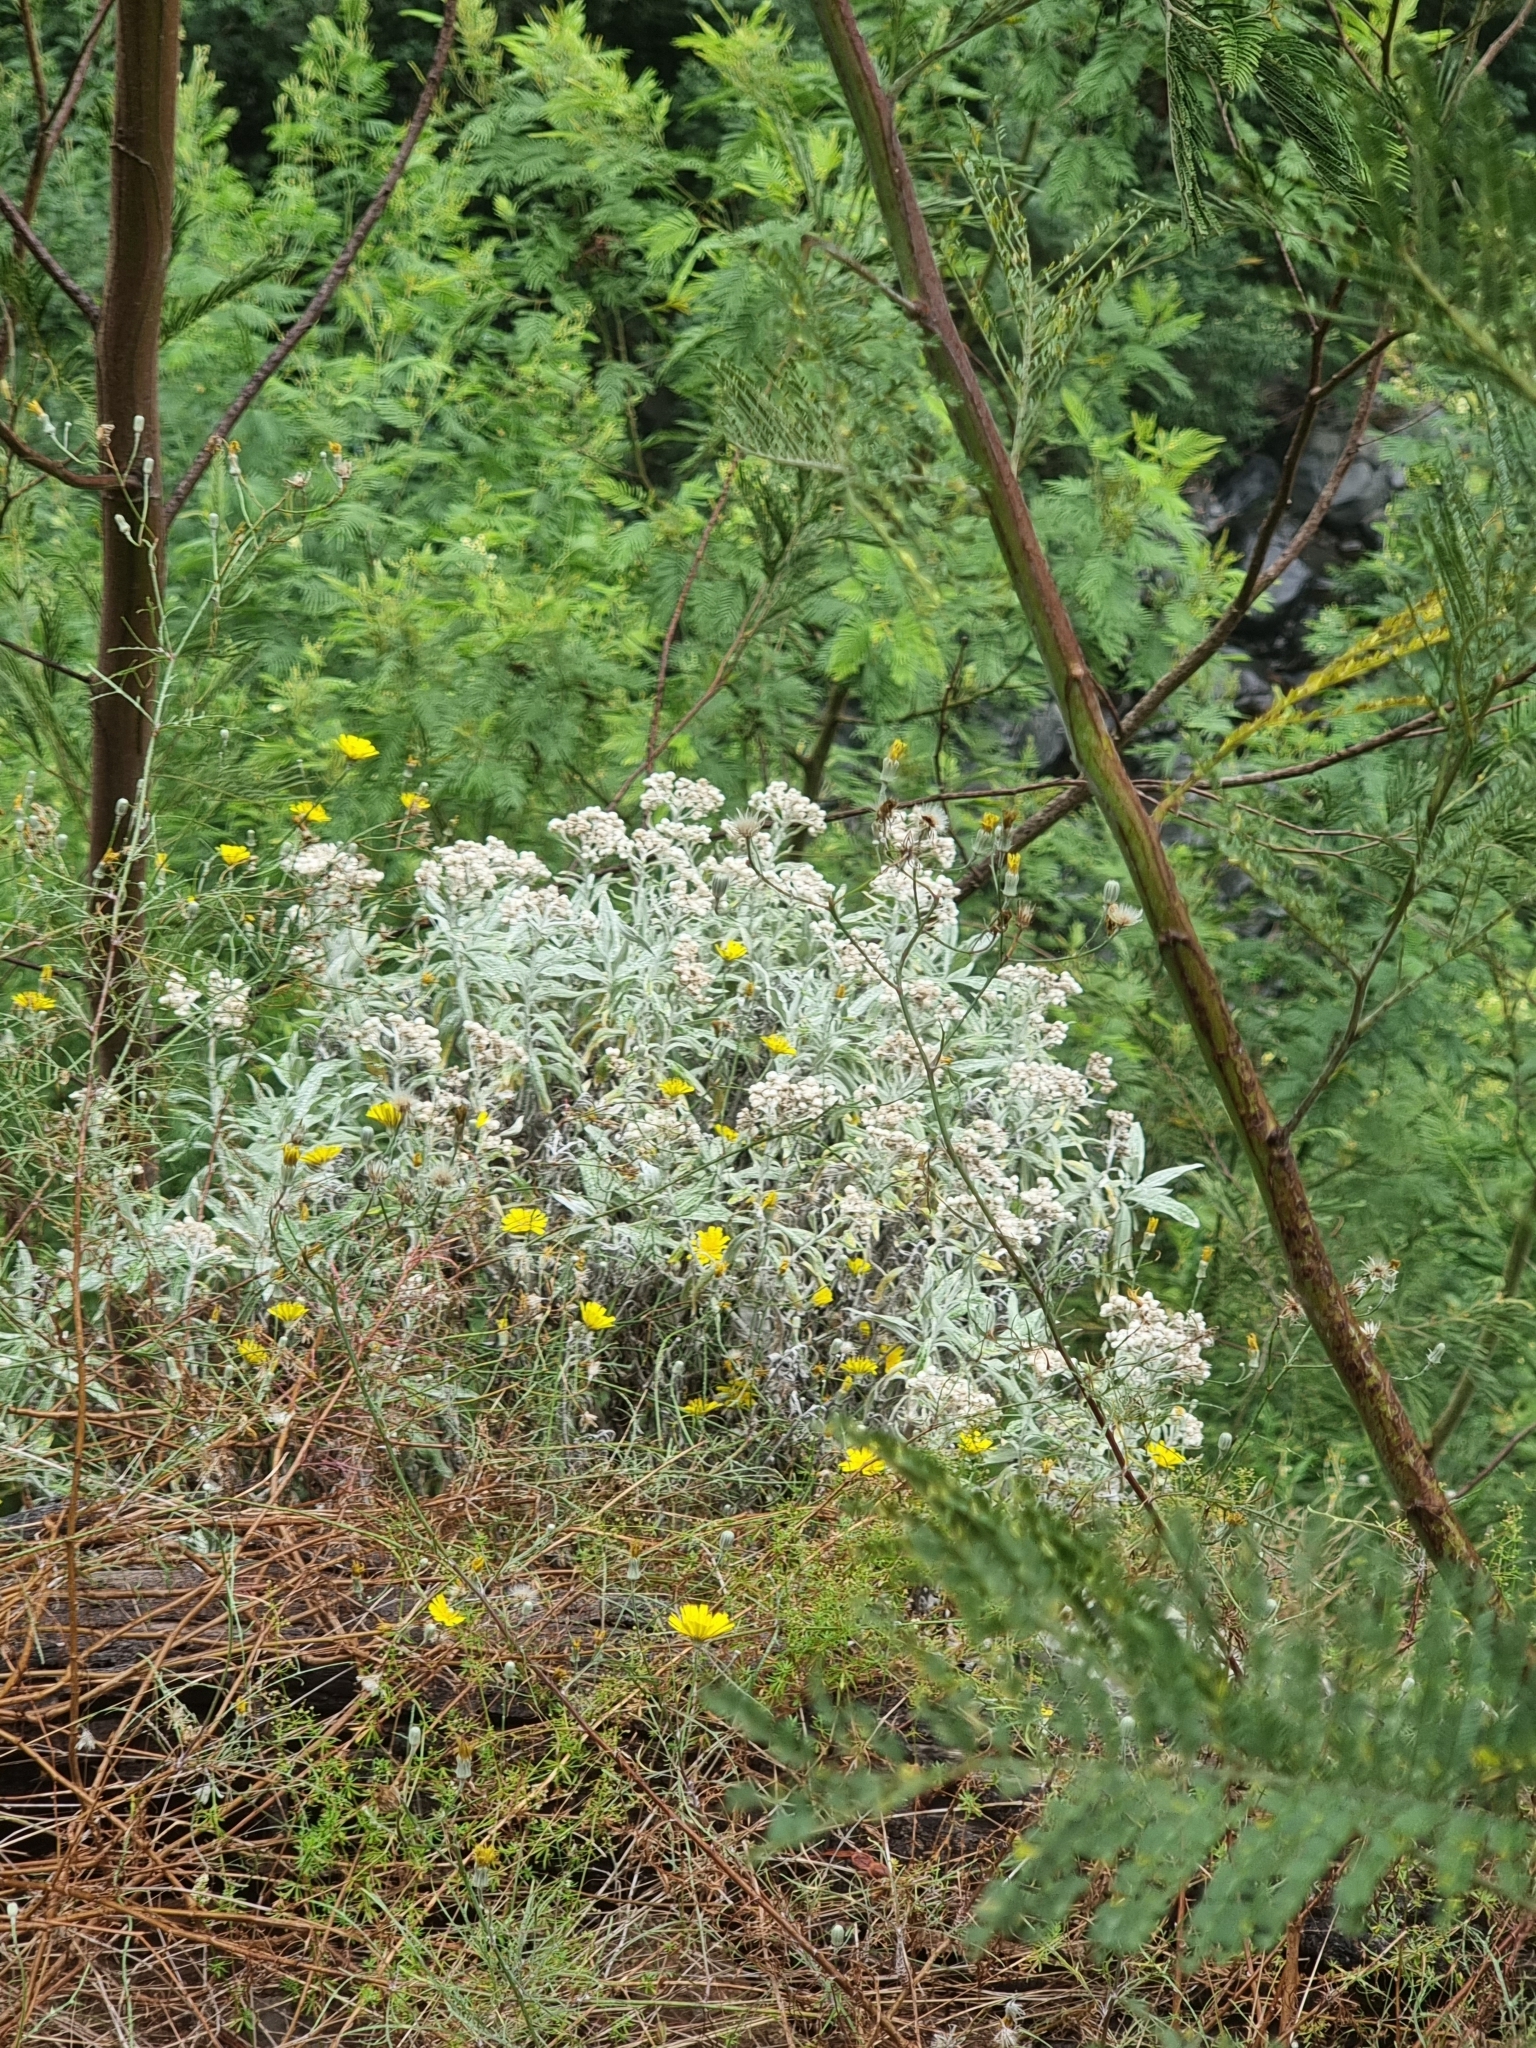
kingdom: Plantae
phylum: Tracheophyta
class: Magnoliopsida
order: Asterales
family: Asteraceae
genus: Helichrysum
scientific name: Helichrysum melaleucum
